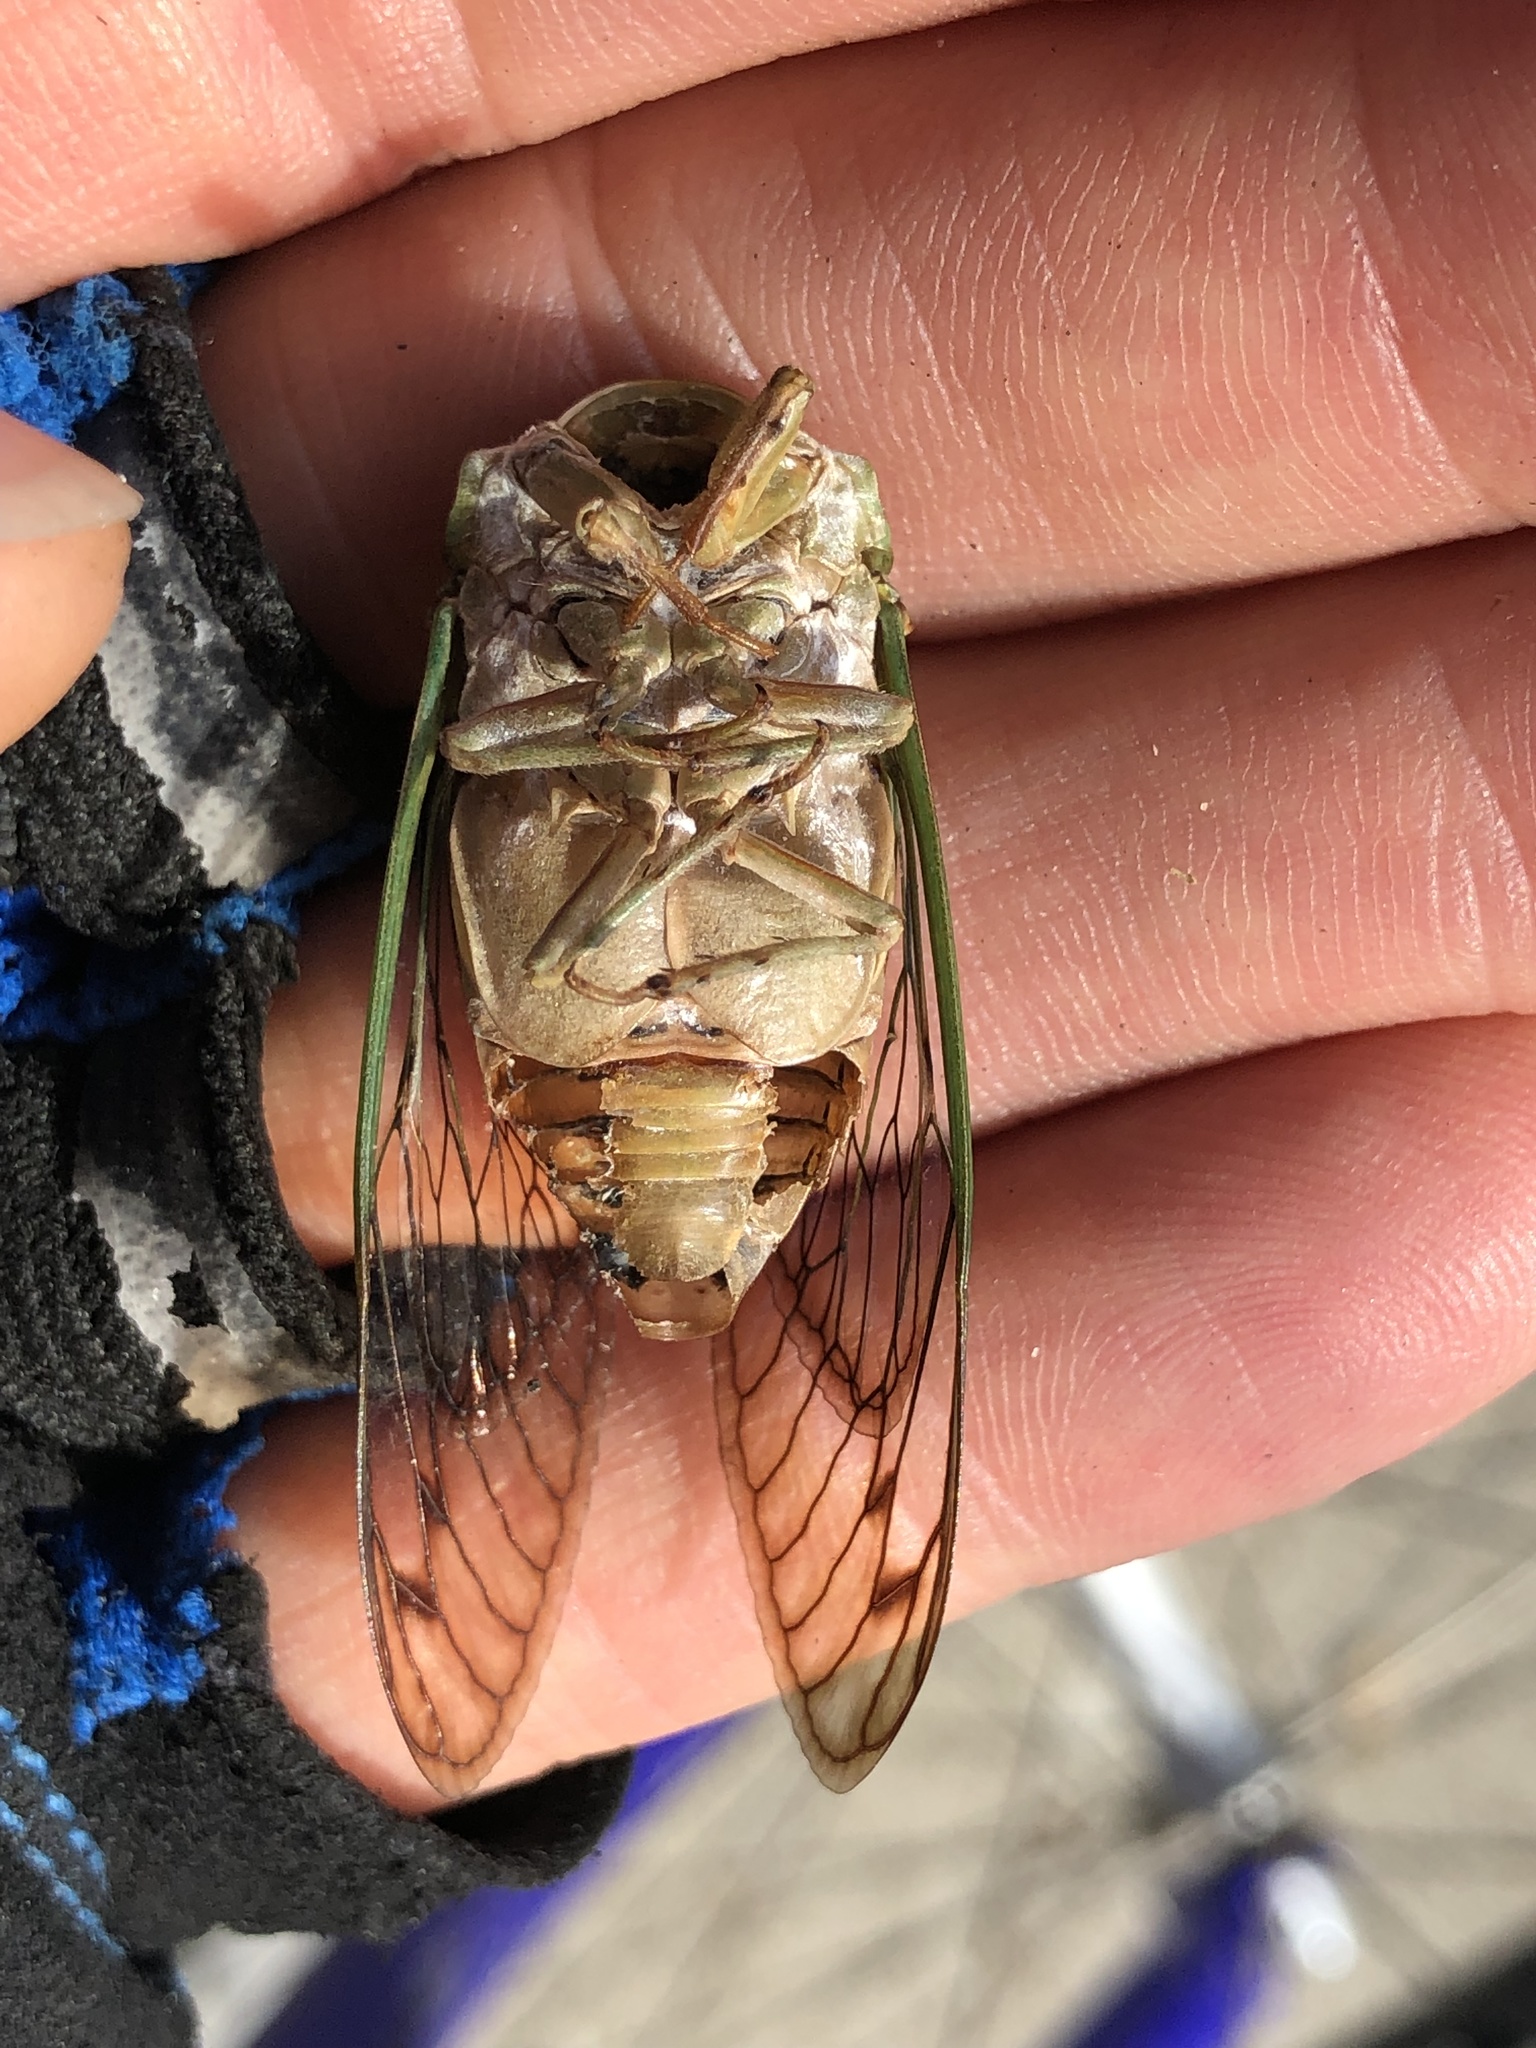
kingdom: Animalia
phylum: Arthropoda
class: Insecta
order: Hemiptera
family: Cicadidae
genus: Neotibicen
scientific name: Neotibicen superbus
